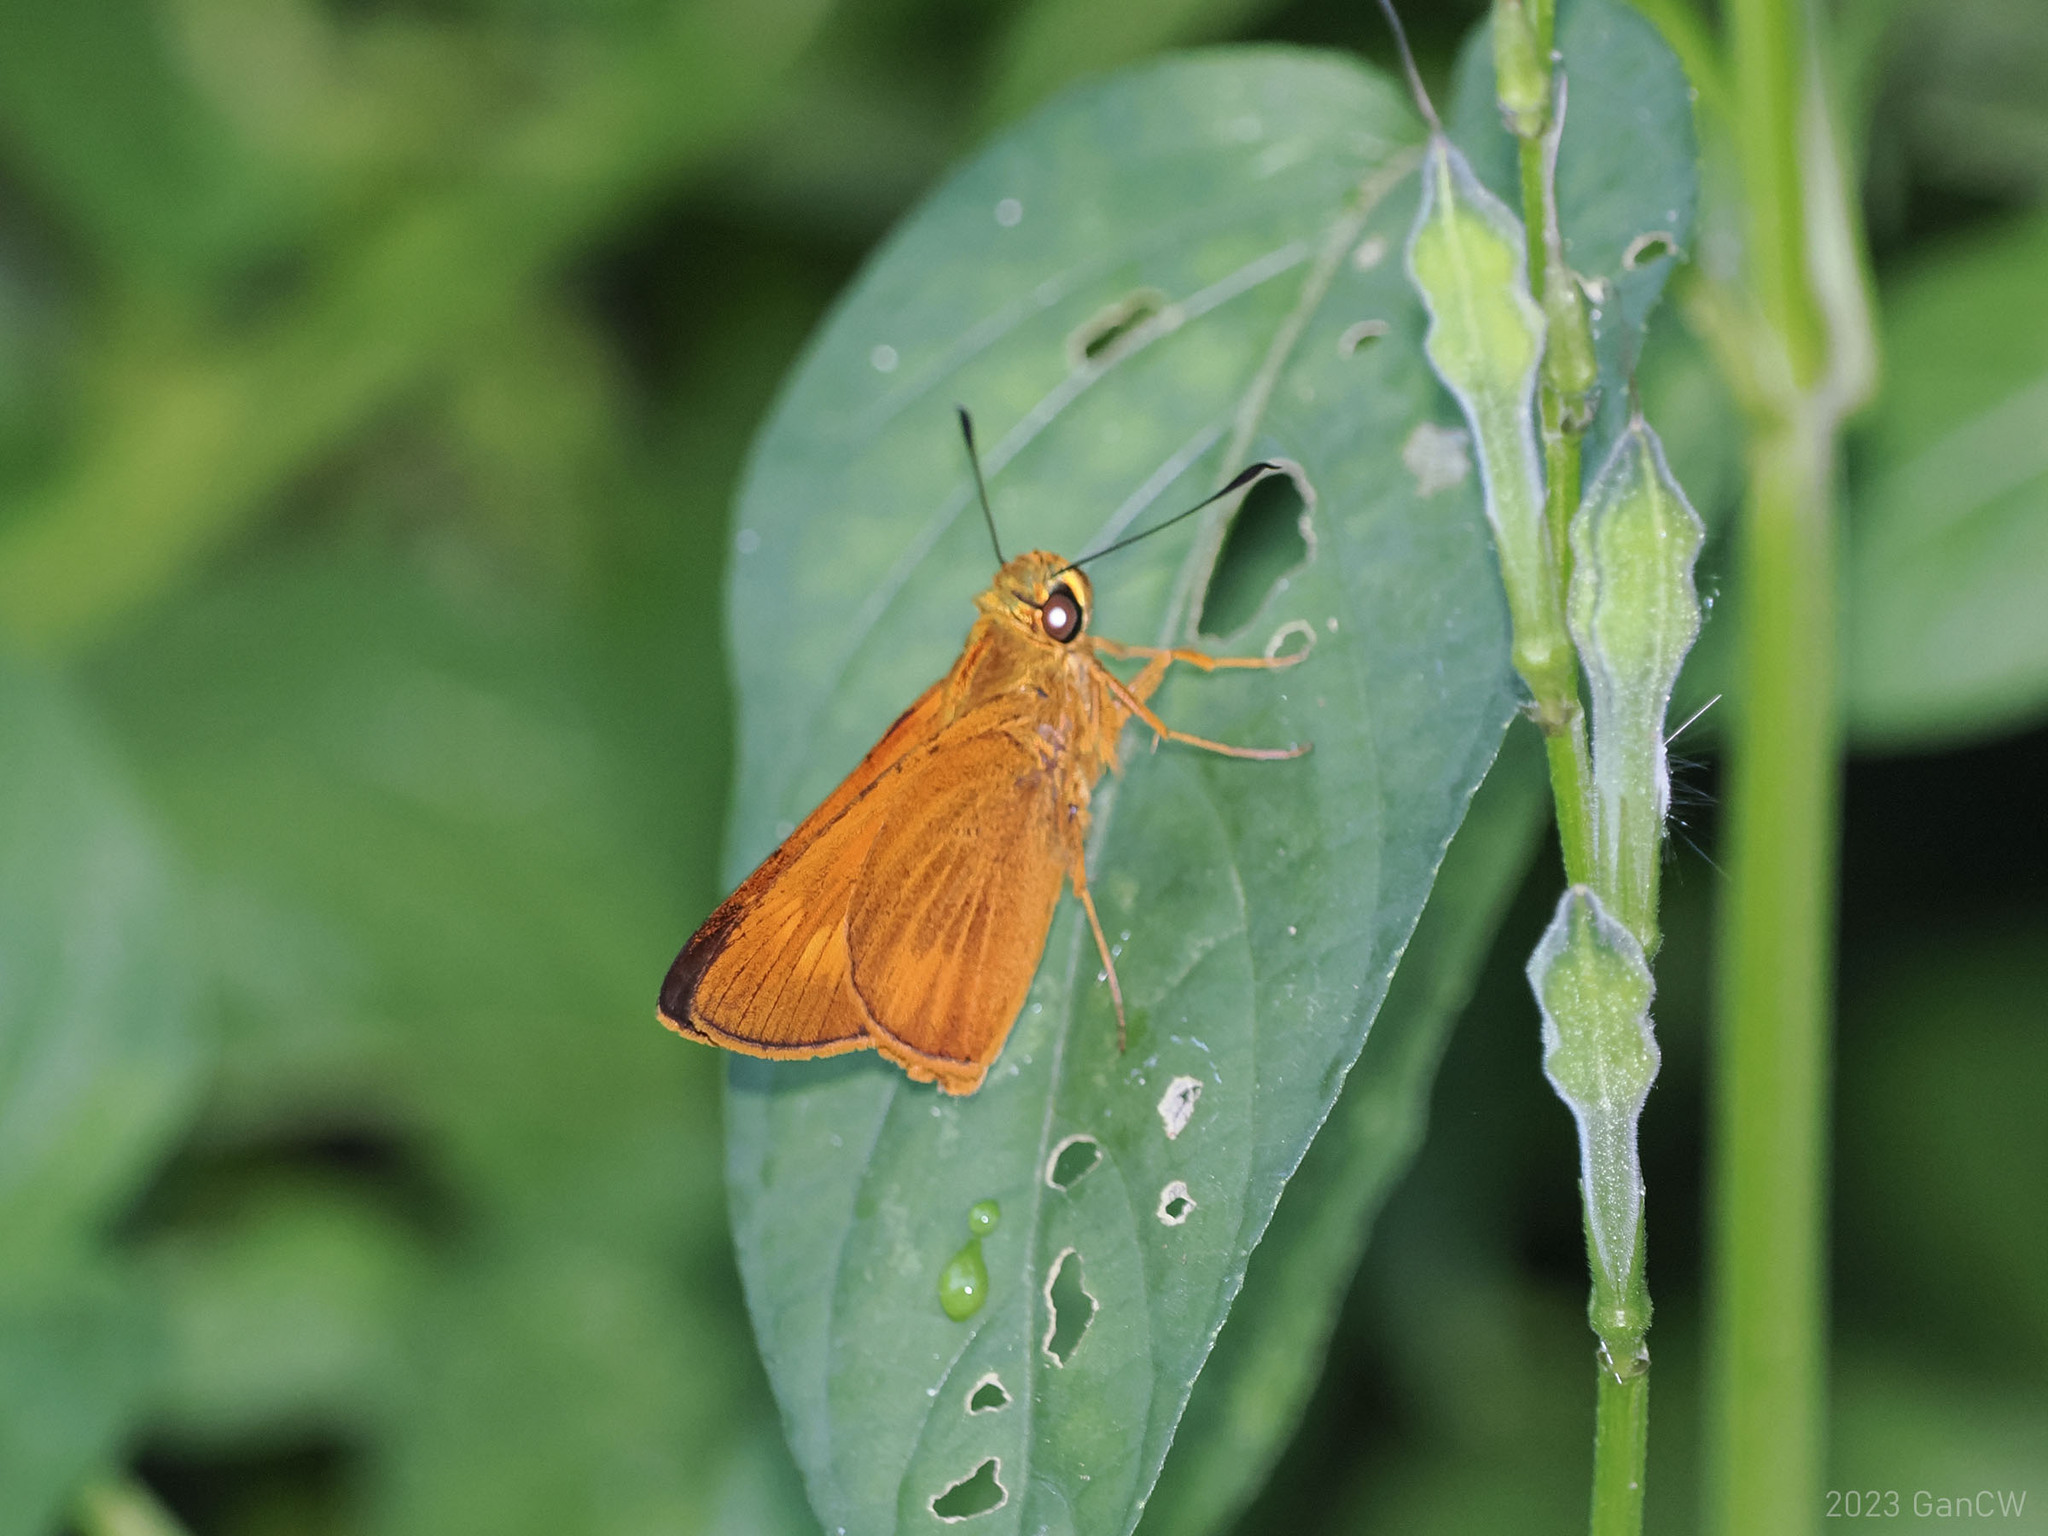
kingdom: Animalia
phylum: Arthropoda
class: Insecta
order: Lepidoptera
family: Hesperiidae
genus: Prusiana
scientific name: Prusiana prusias
